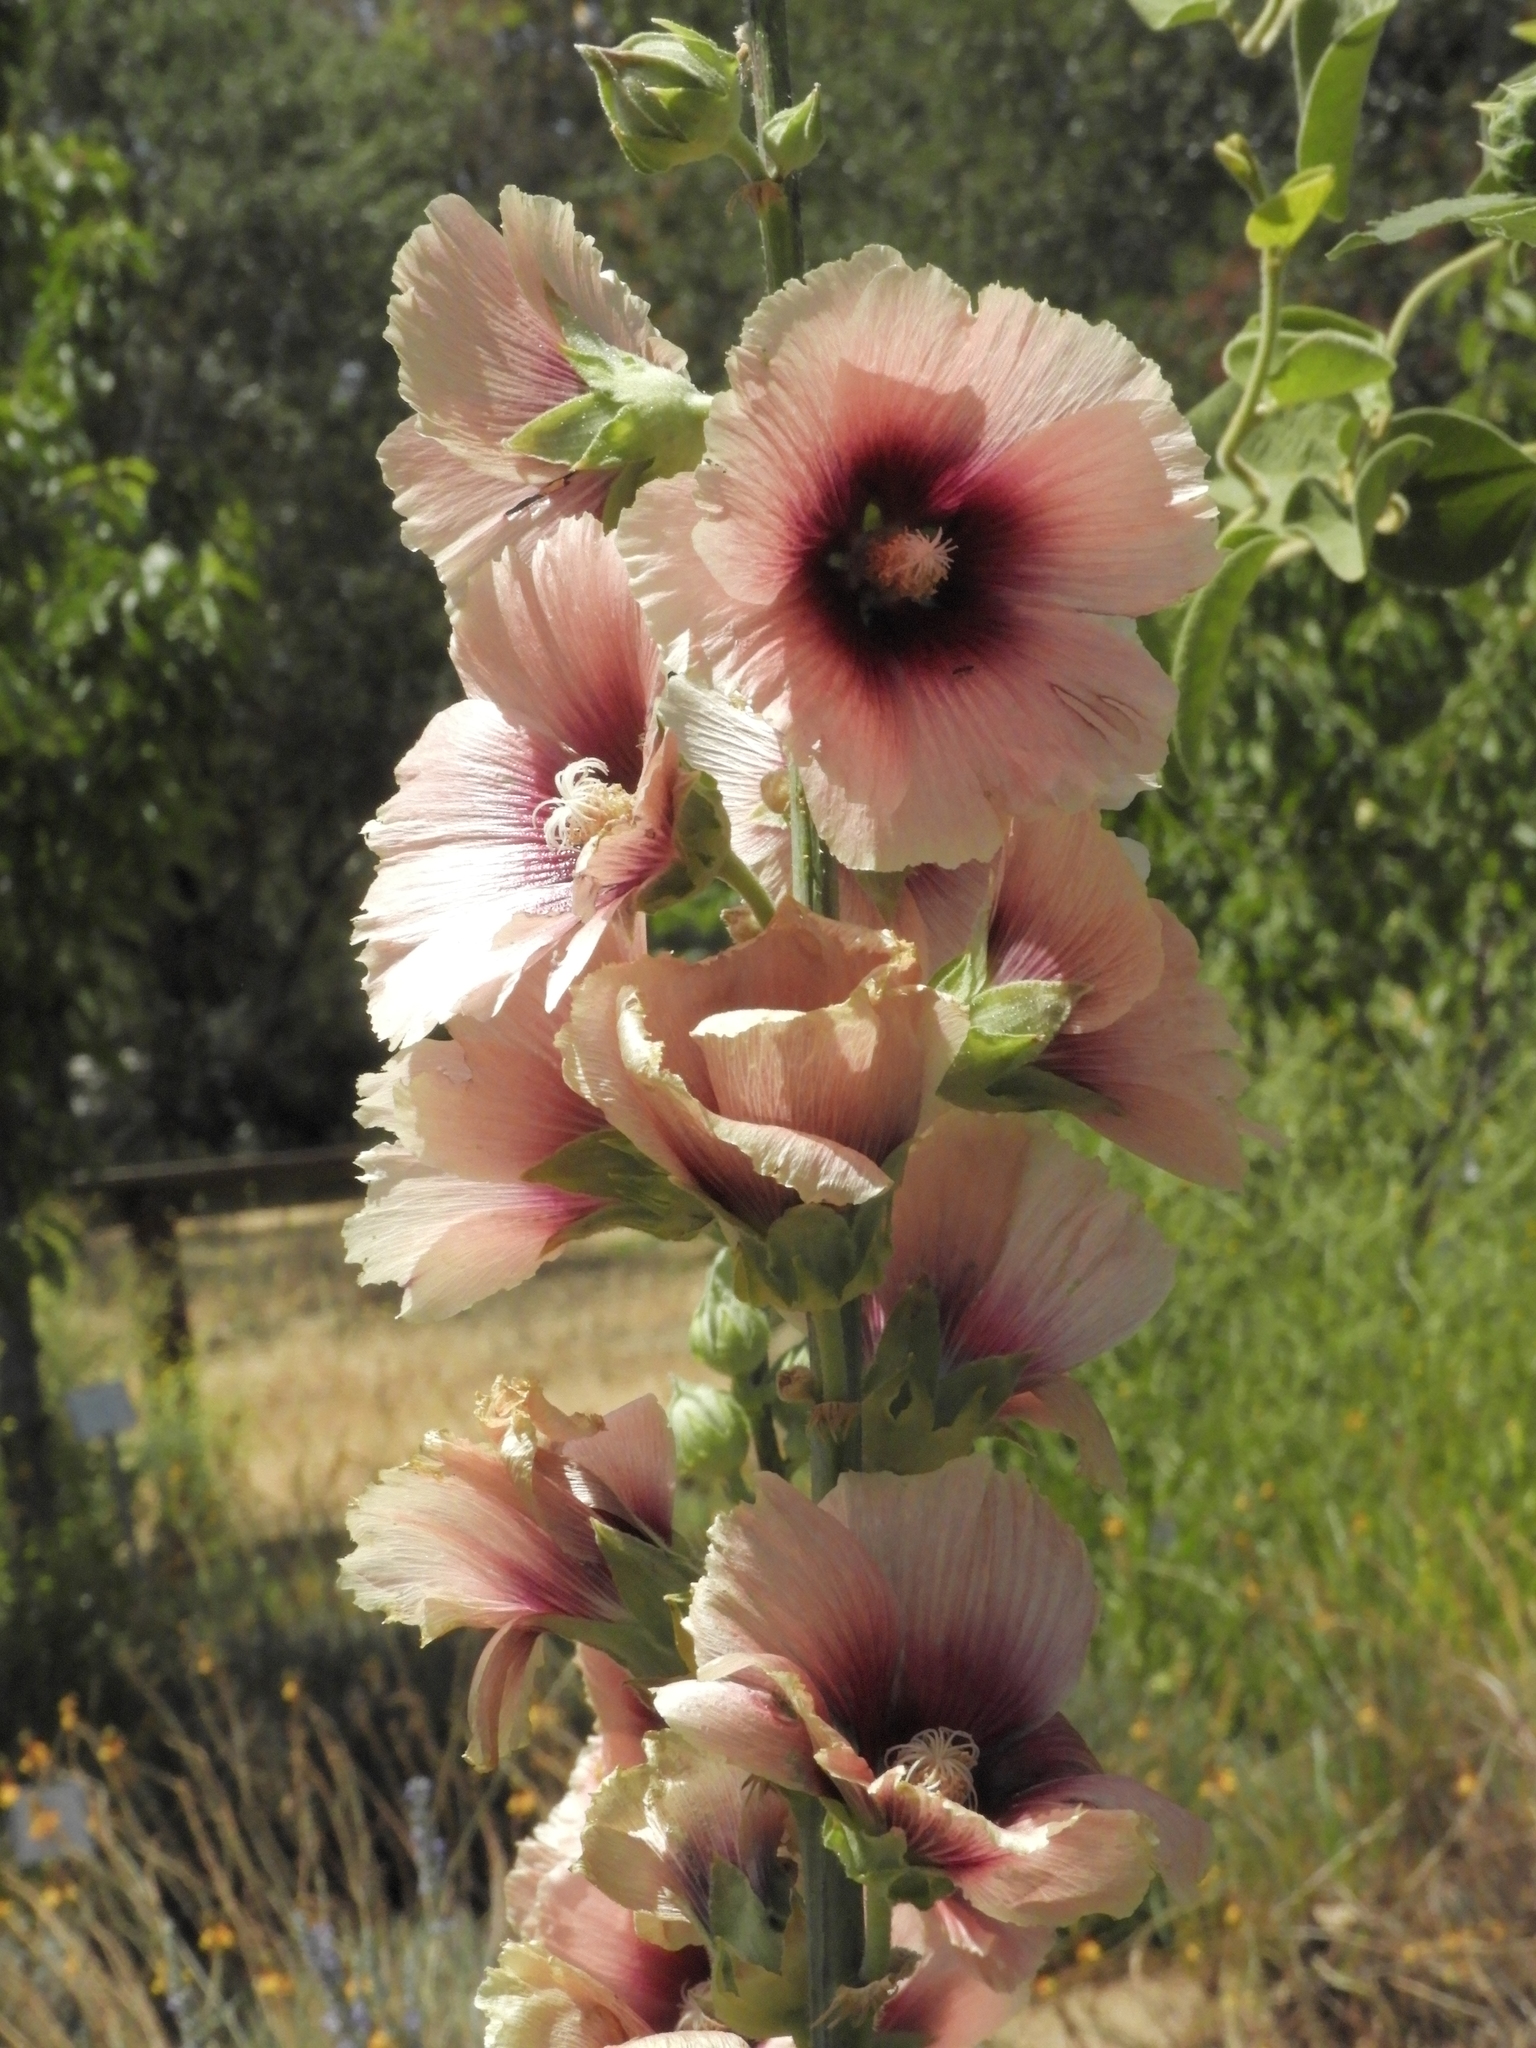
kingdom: Plantae
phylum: Tracheophyta
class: Magnoliopsida
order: Malvales
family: Malvaceae
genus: Alcea
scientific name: Alcea rosea
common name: Hollyhock
